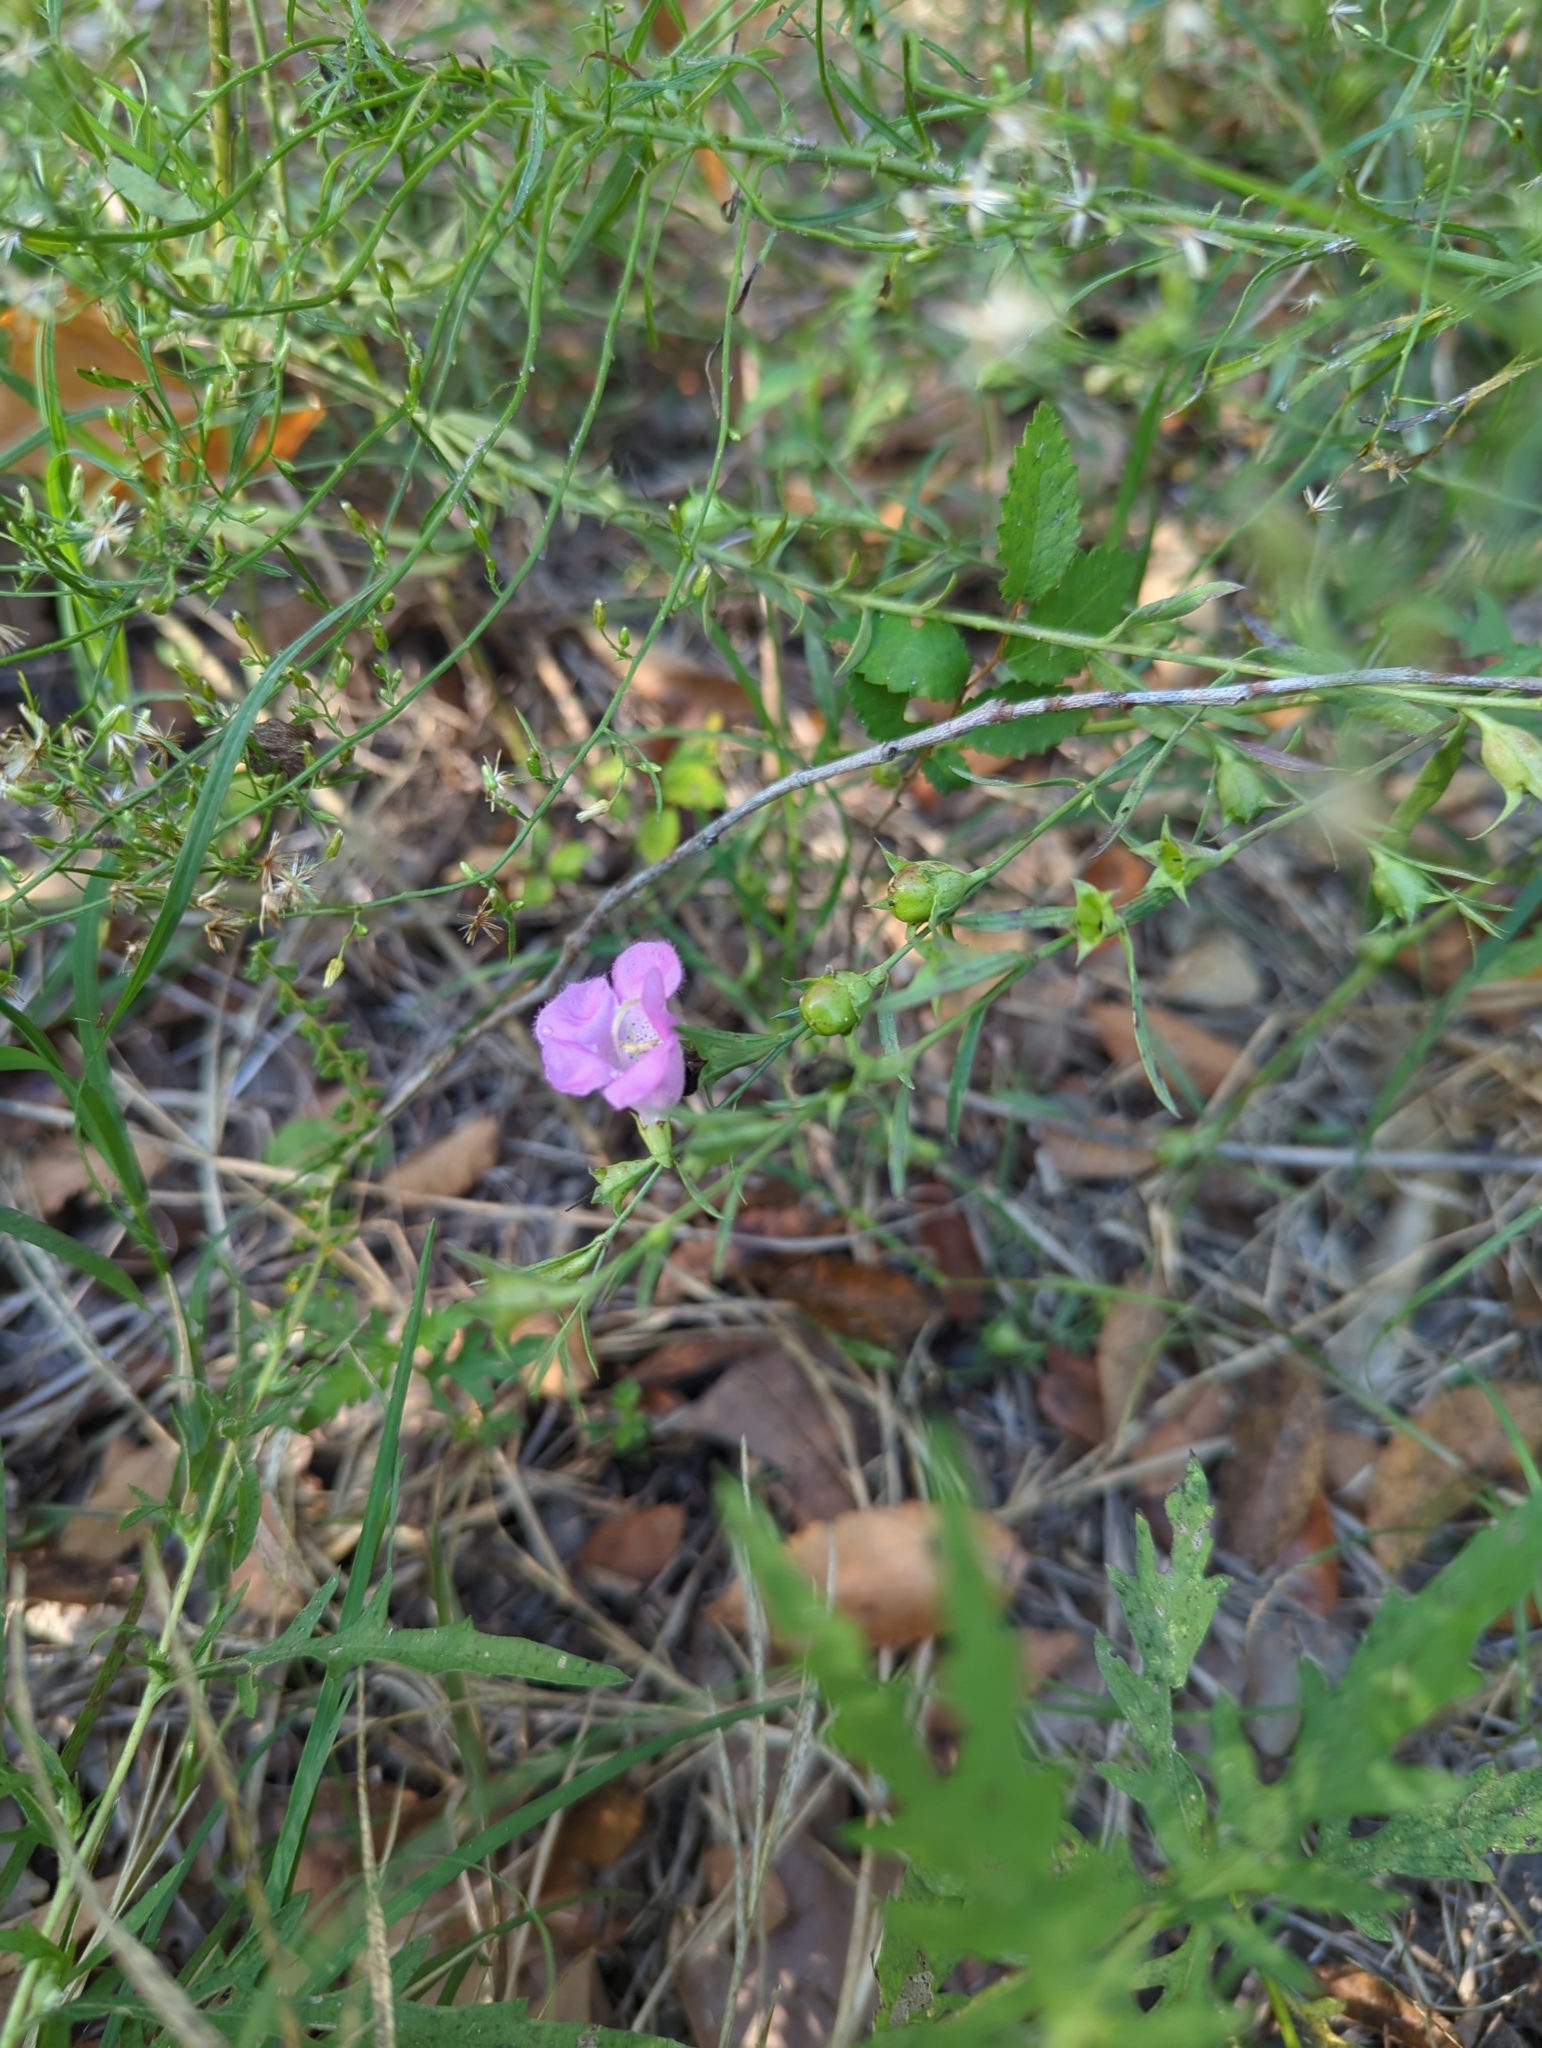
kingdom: Plantae
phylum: Tracheophyta
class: Magnoliopsida
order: Lamiales
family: Orobanchaceae
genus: Agalinis
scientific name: Agalinis heterophylla
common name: Prairie agalinis
